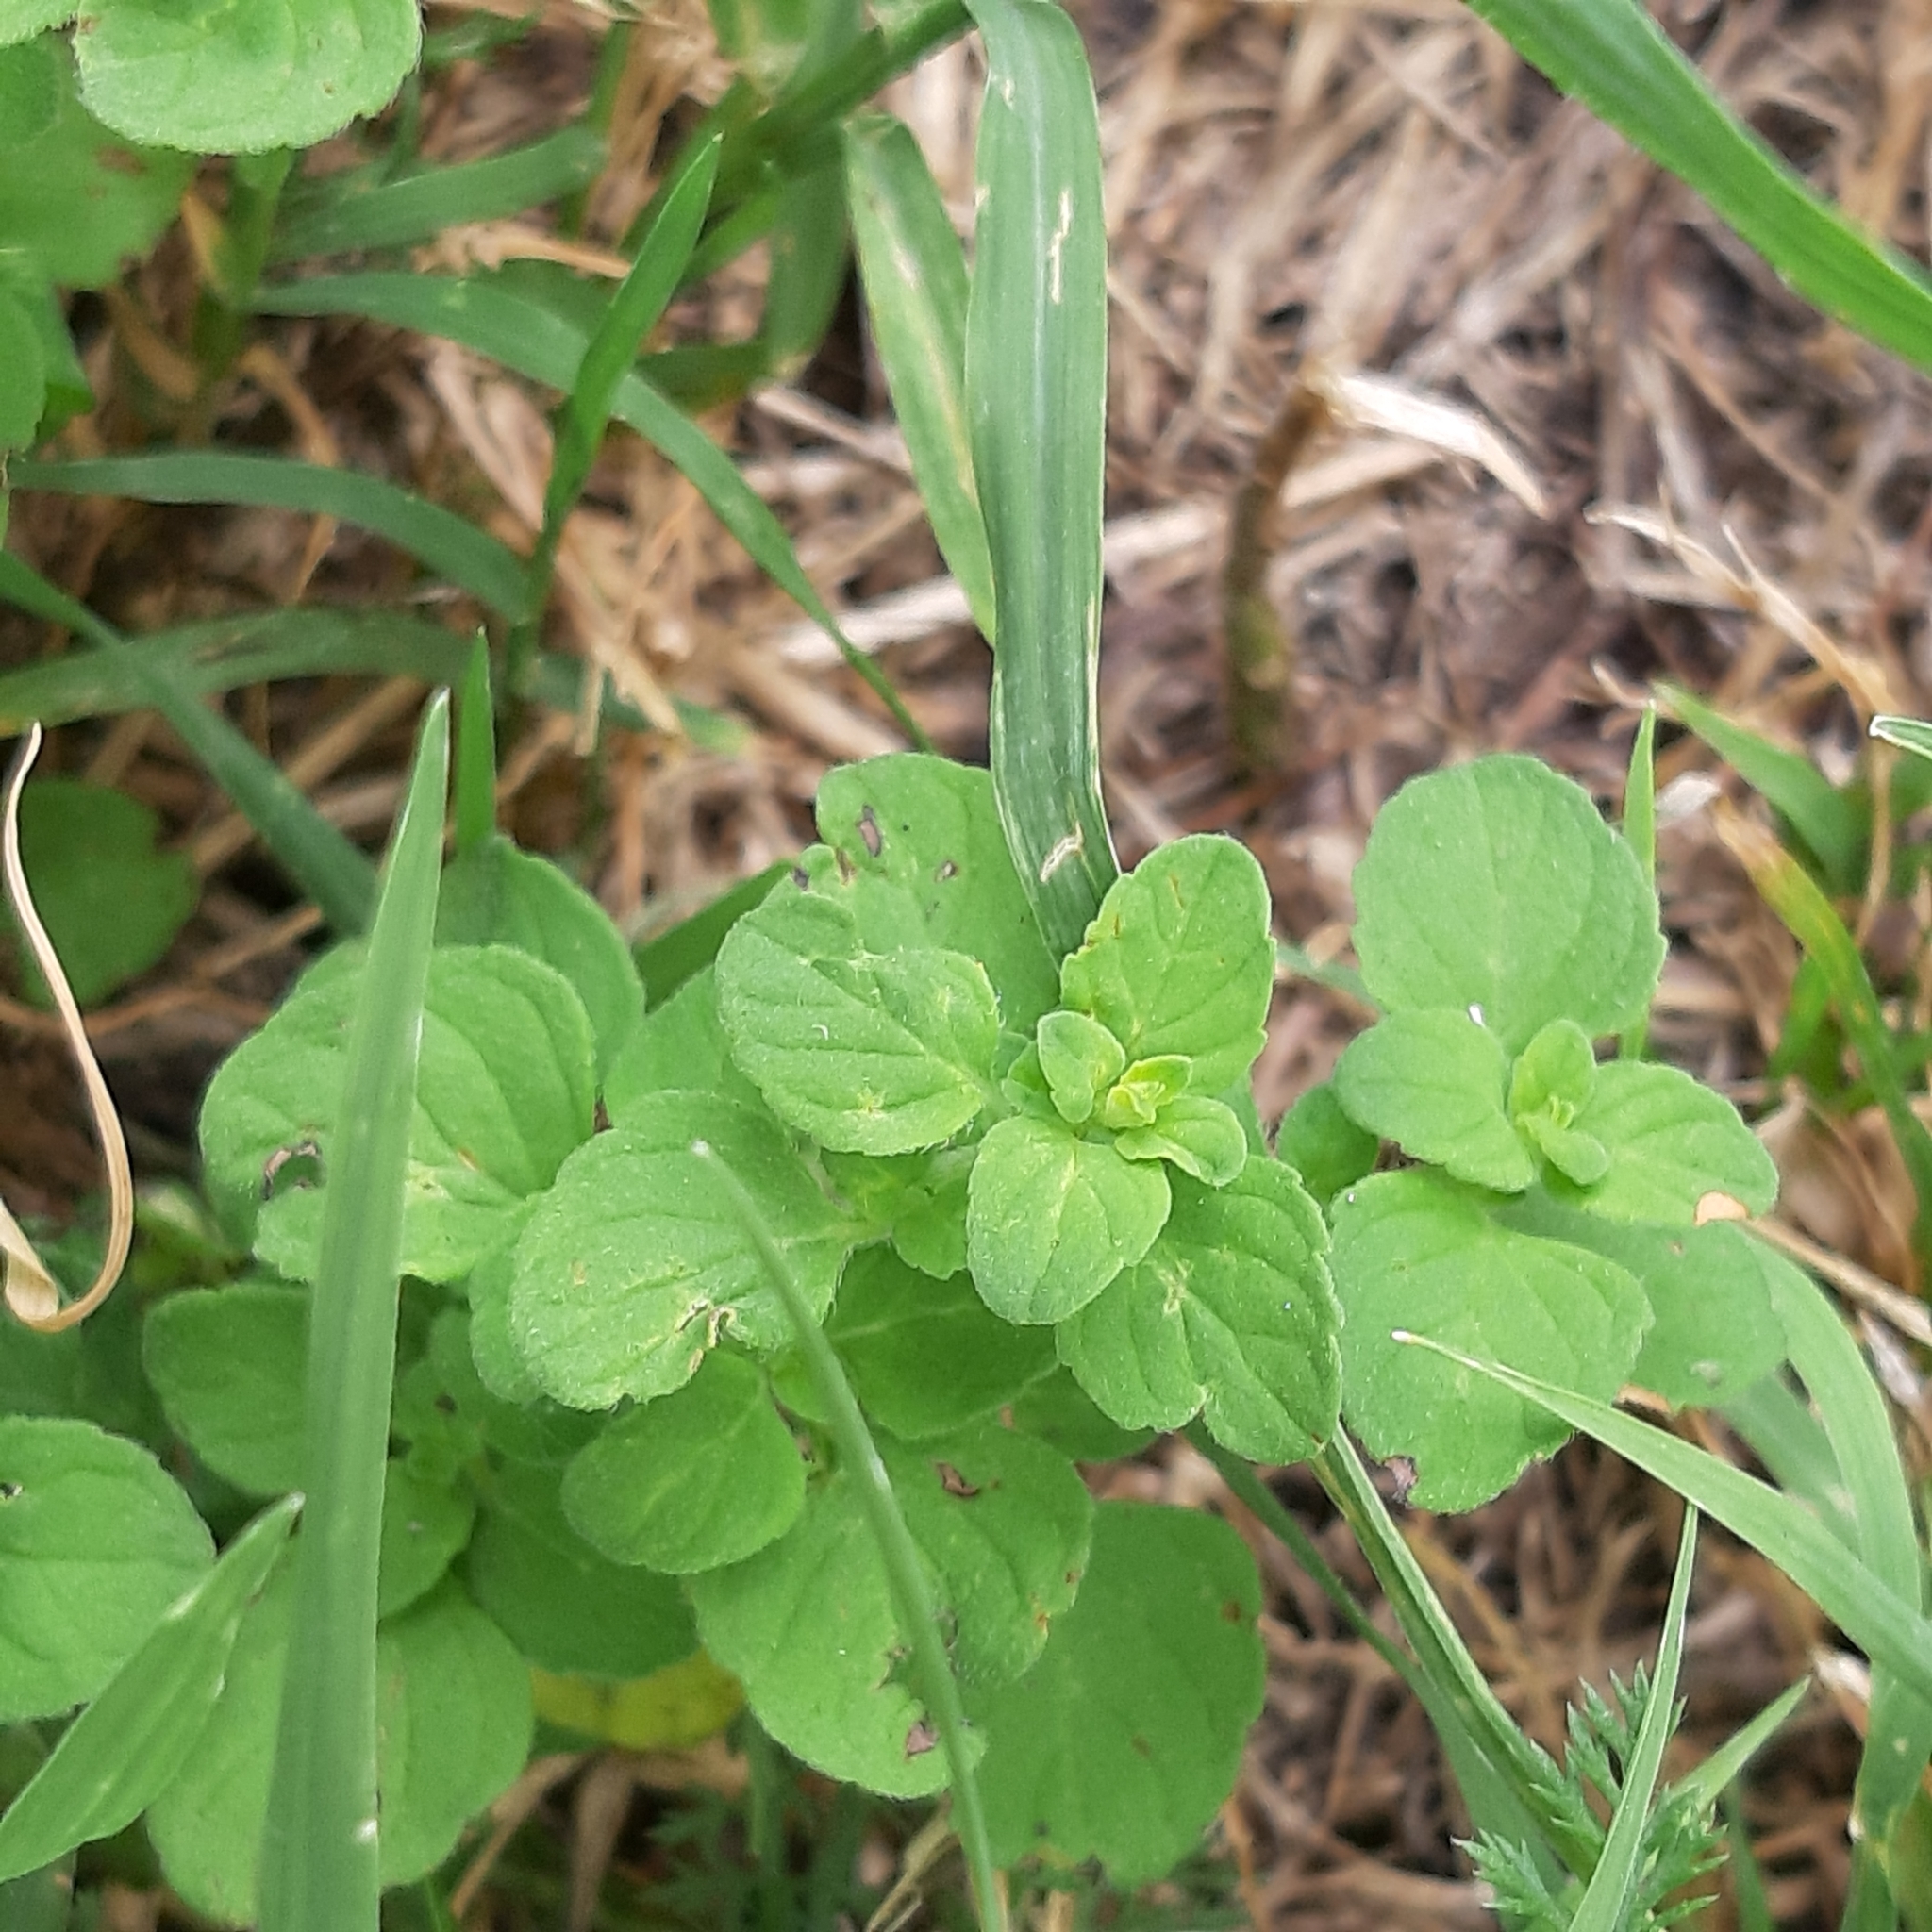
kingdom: Plantae
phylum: Tracheophyta
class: Magnoliopsida
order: Lamiales
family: Lamiaceae
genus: Clinopodium
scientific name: Clinopodium nepeta
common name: Lesser calamint
